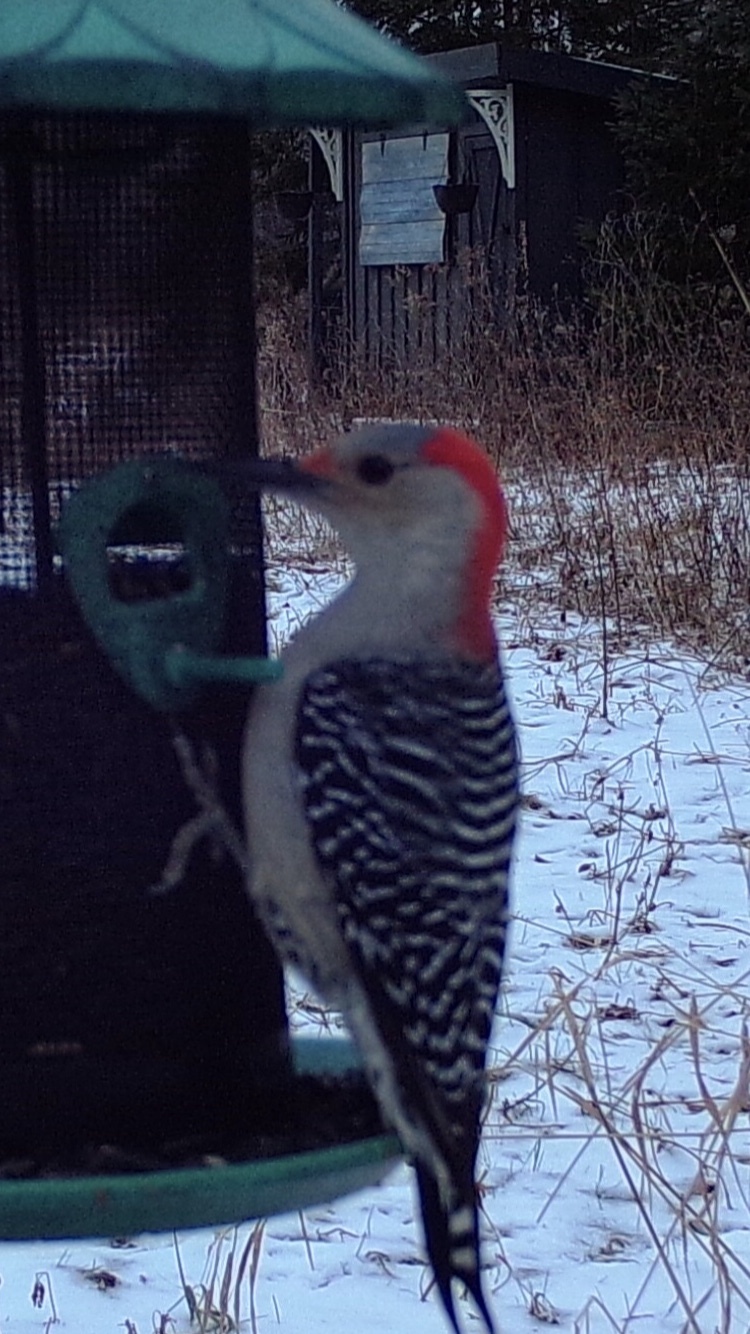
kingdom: Animalia
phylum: Chordata
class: Aves
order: Piciformes
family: Picidae
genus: Melanerpes
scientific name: Melanerpes carolinus
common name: Red-bellied woodpecker
